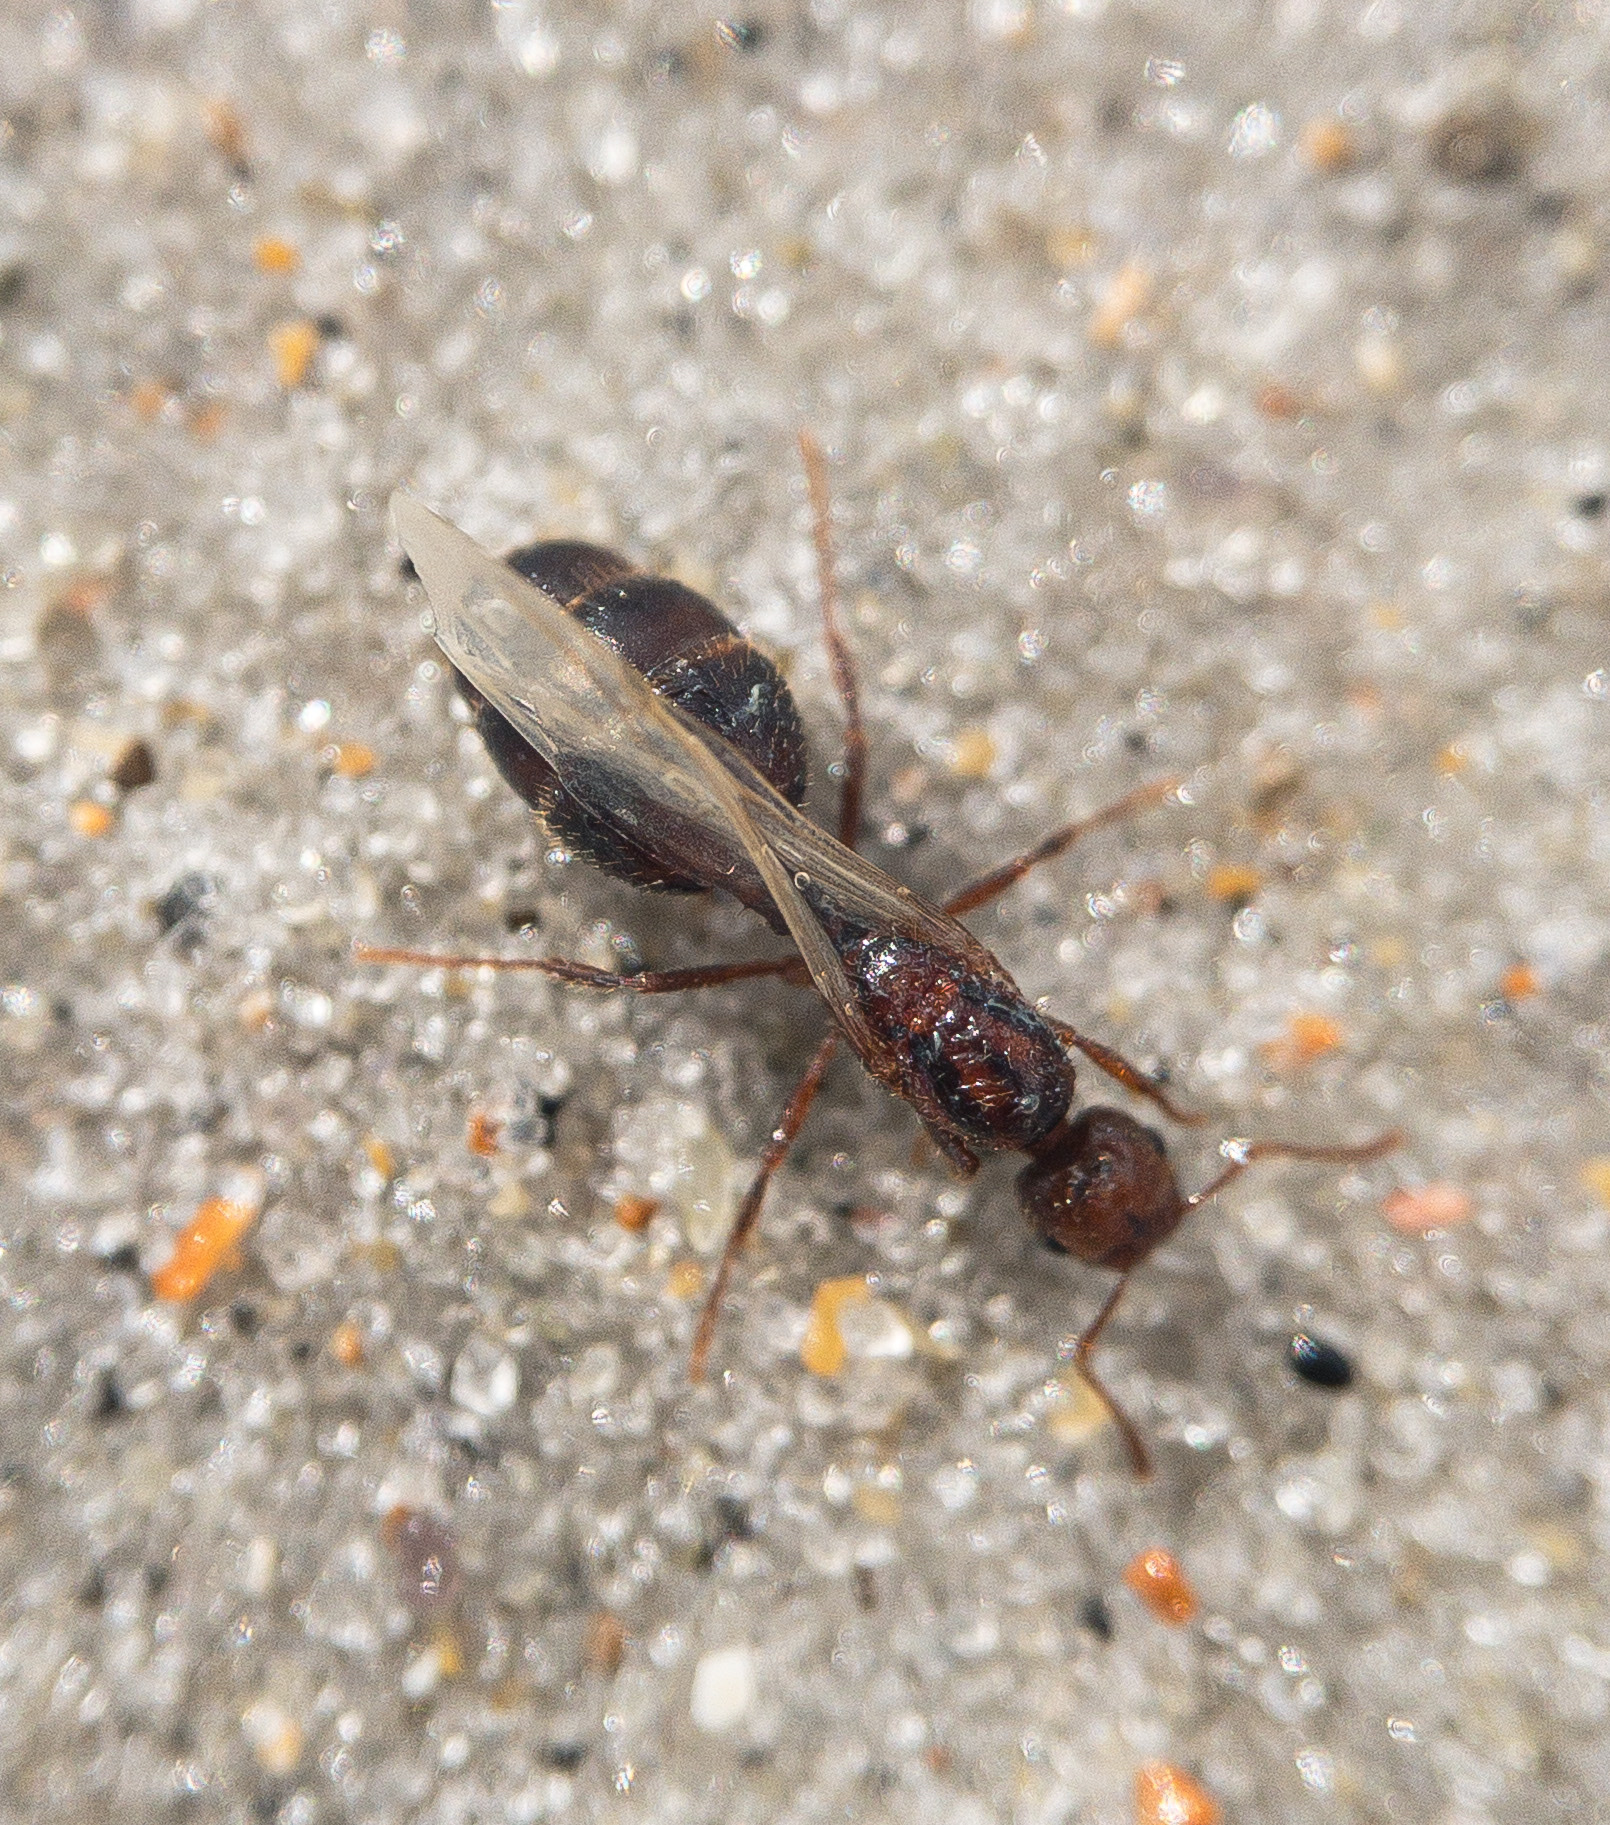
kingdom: Animalia
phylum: Arthropoda
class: Insecta
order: Hymenoptera
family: Formicidae
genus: Solenopsis
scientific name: Solenopsis invicta
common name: Red imported fire ant
